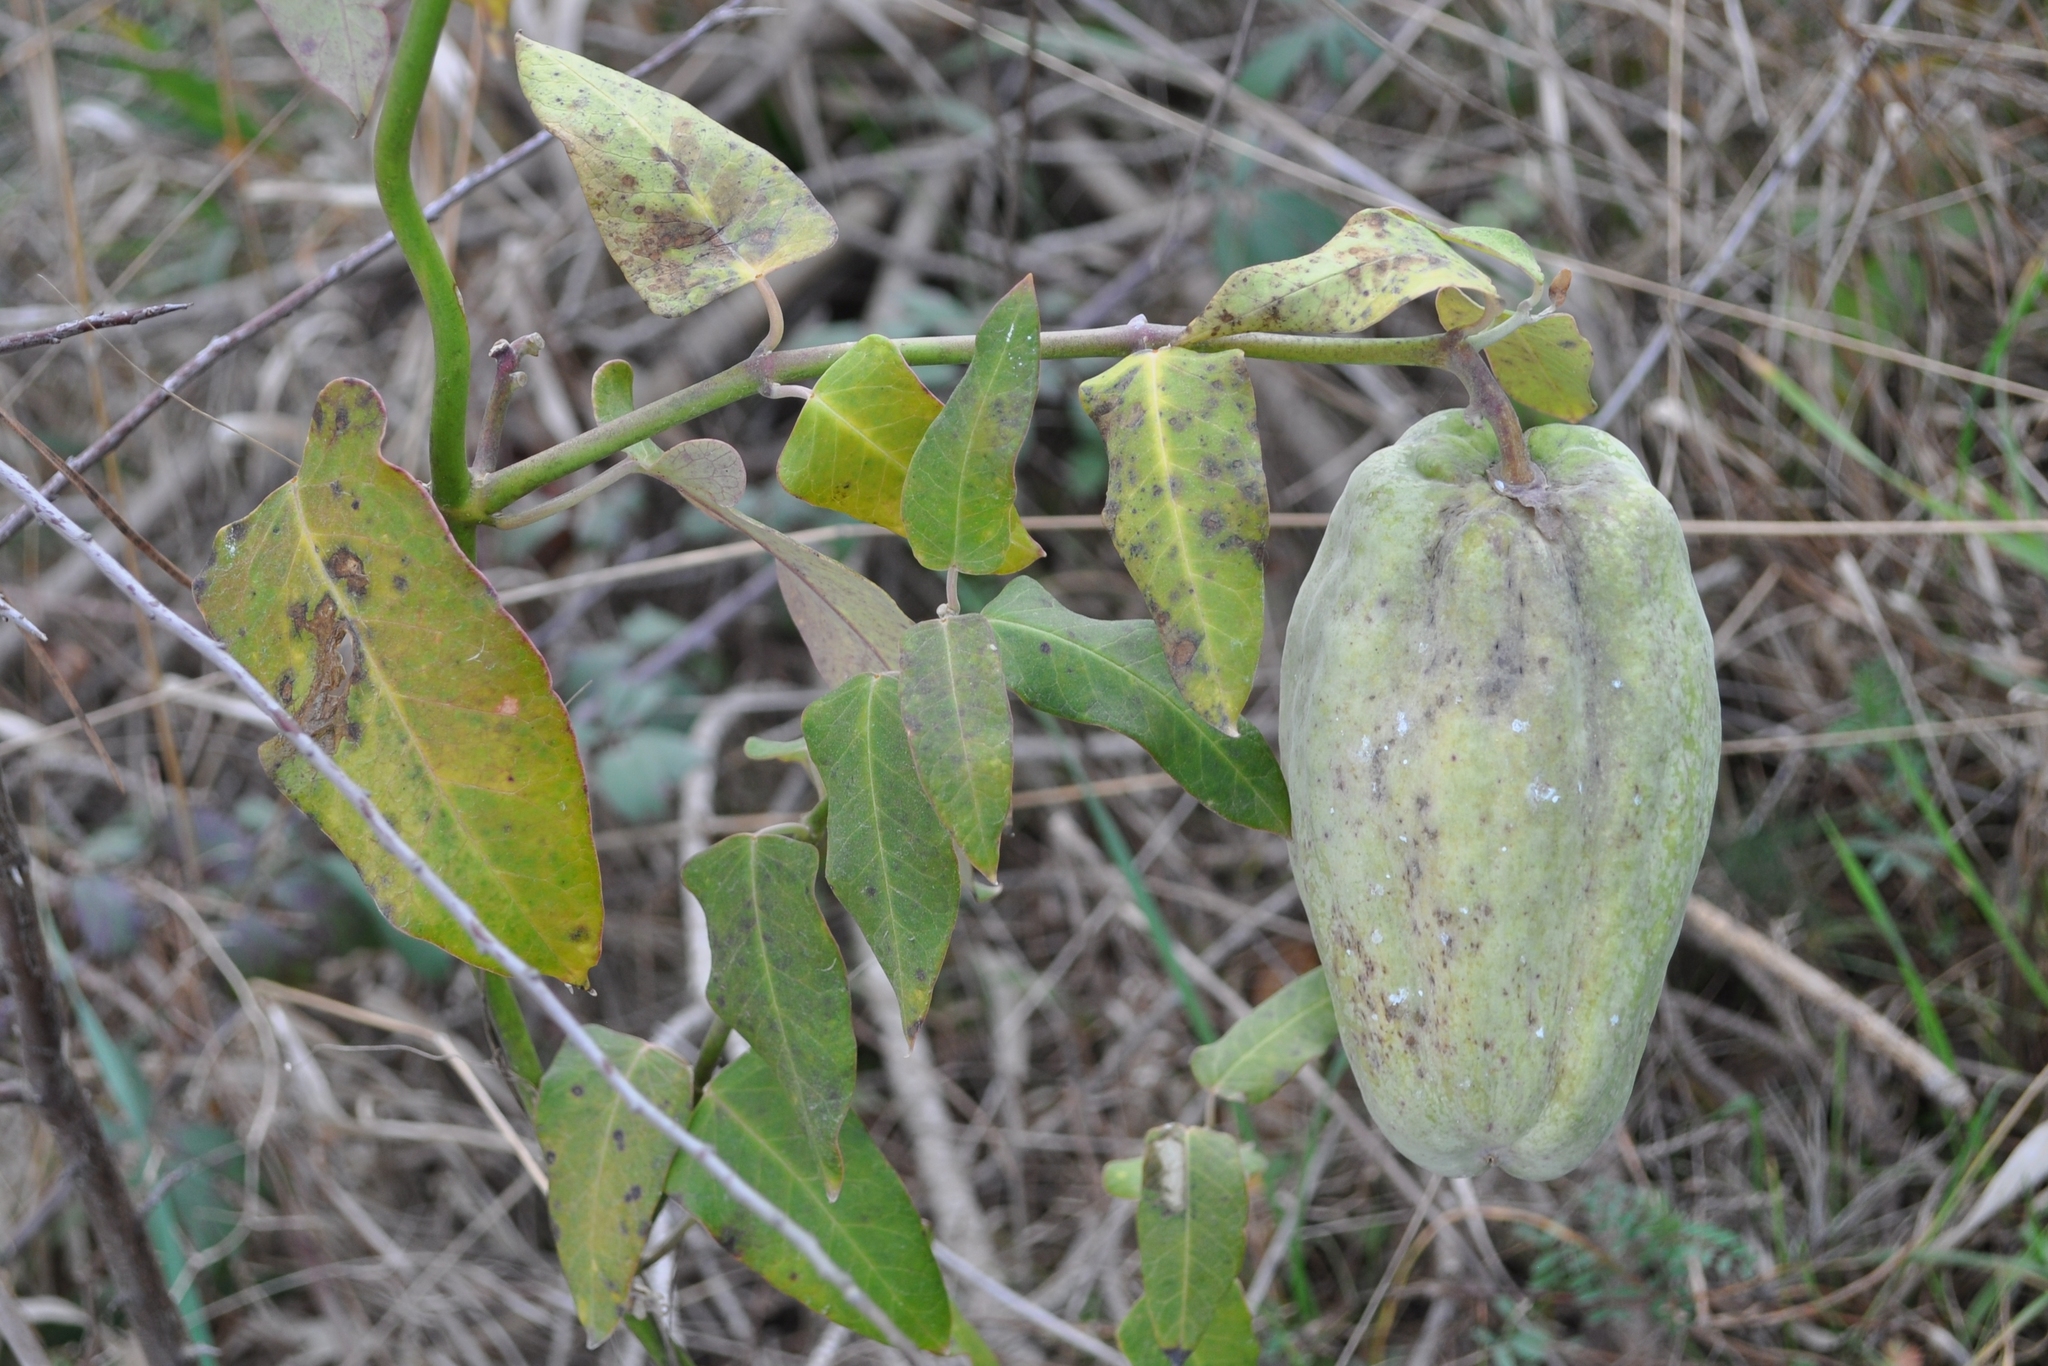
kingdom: Plantae
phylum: Tracheophyta
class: Magnoliopsida
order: Gentianales
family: Apocynaceae
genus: Araujia
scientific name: Araujia sericifera
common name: White bladderflower
